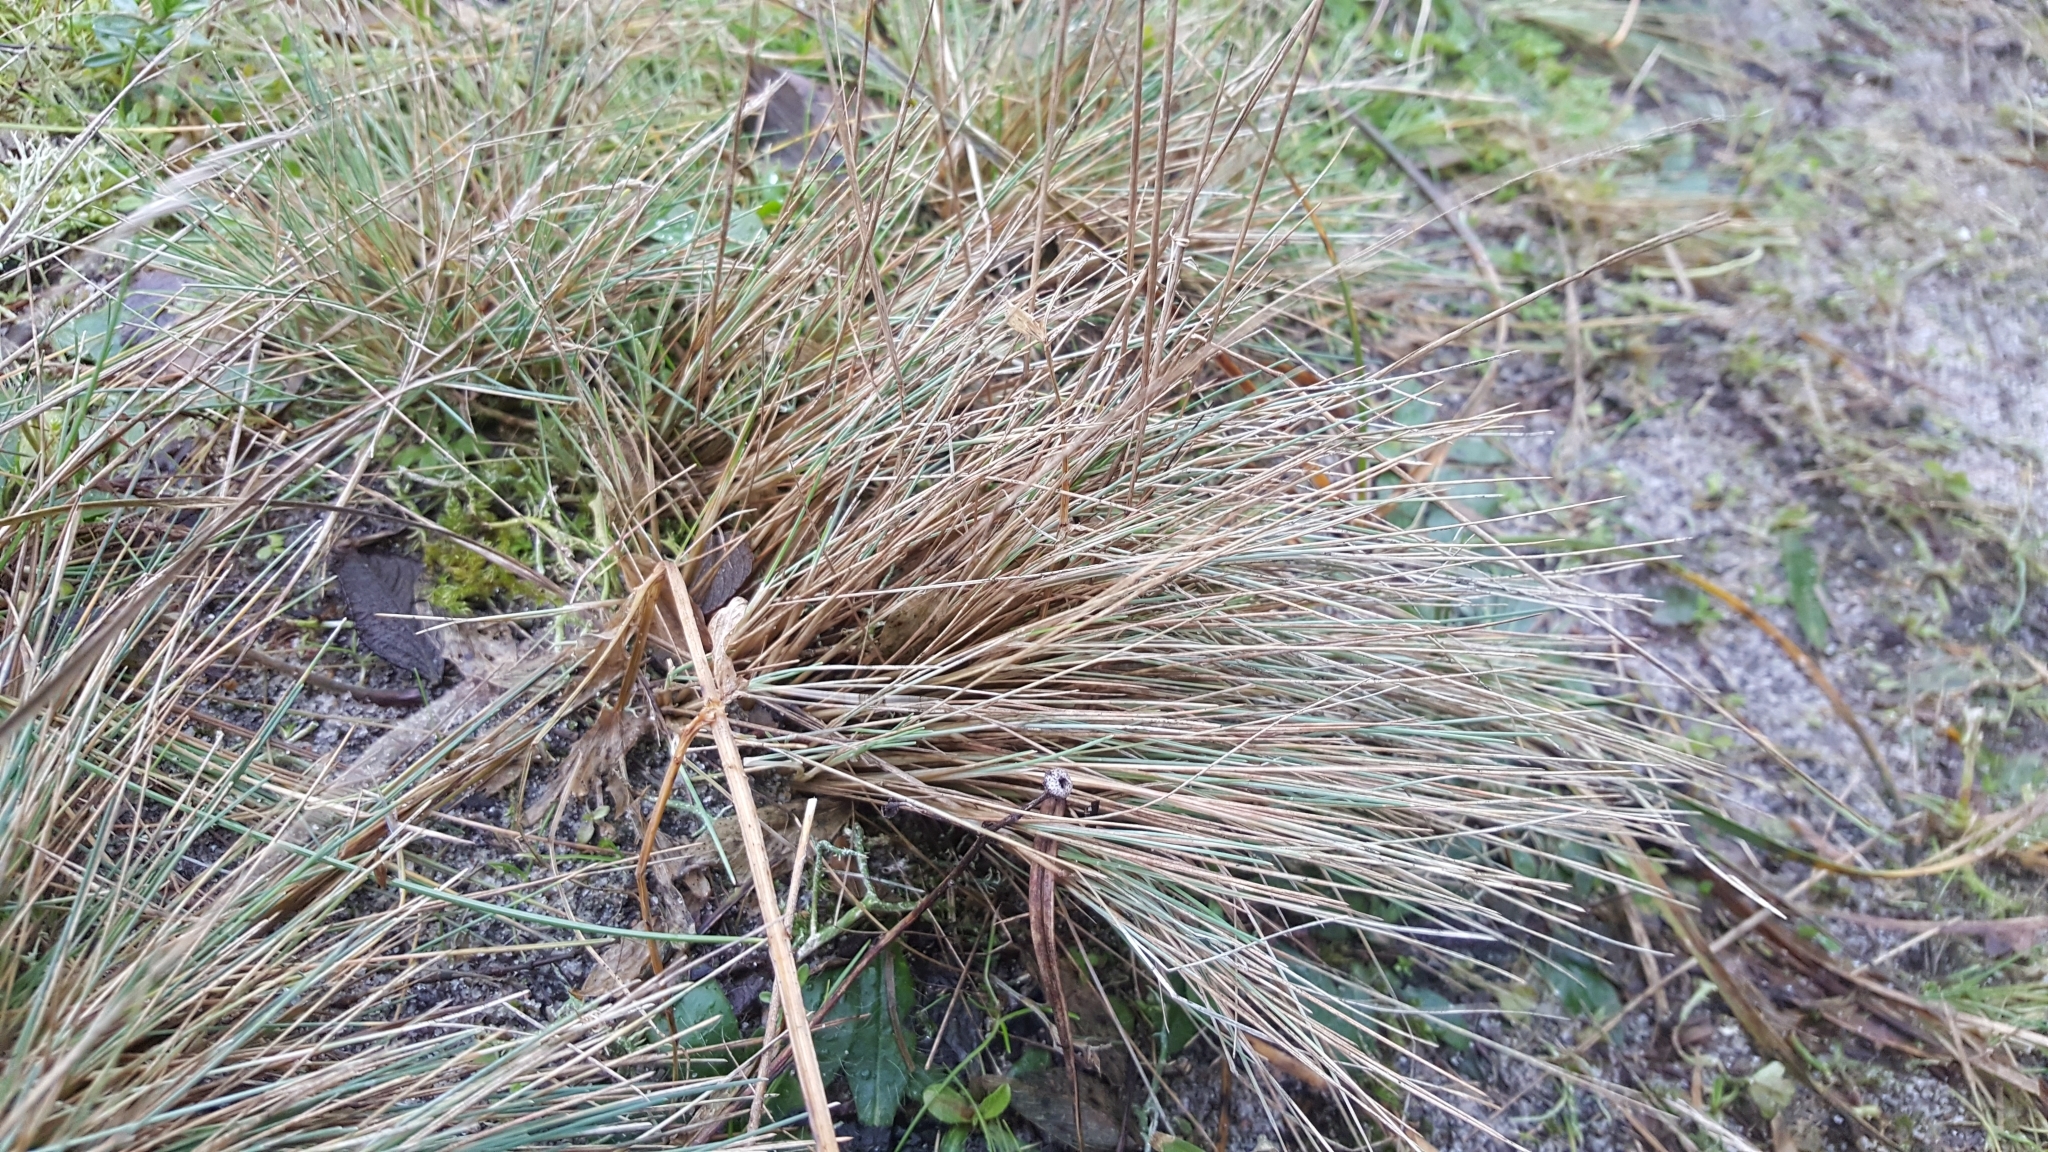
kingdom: Plantae
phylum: Tracheophyta
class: Liliopsida
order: Poales
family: Poaceae
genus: Corynephorus
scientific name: Corynephorus canescens
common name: Grey hair-grass
